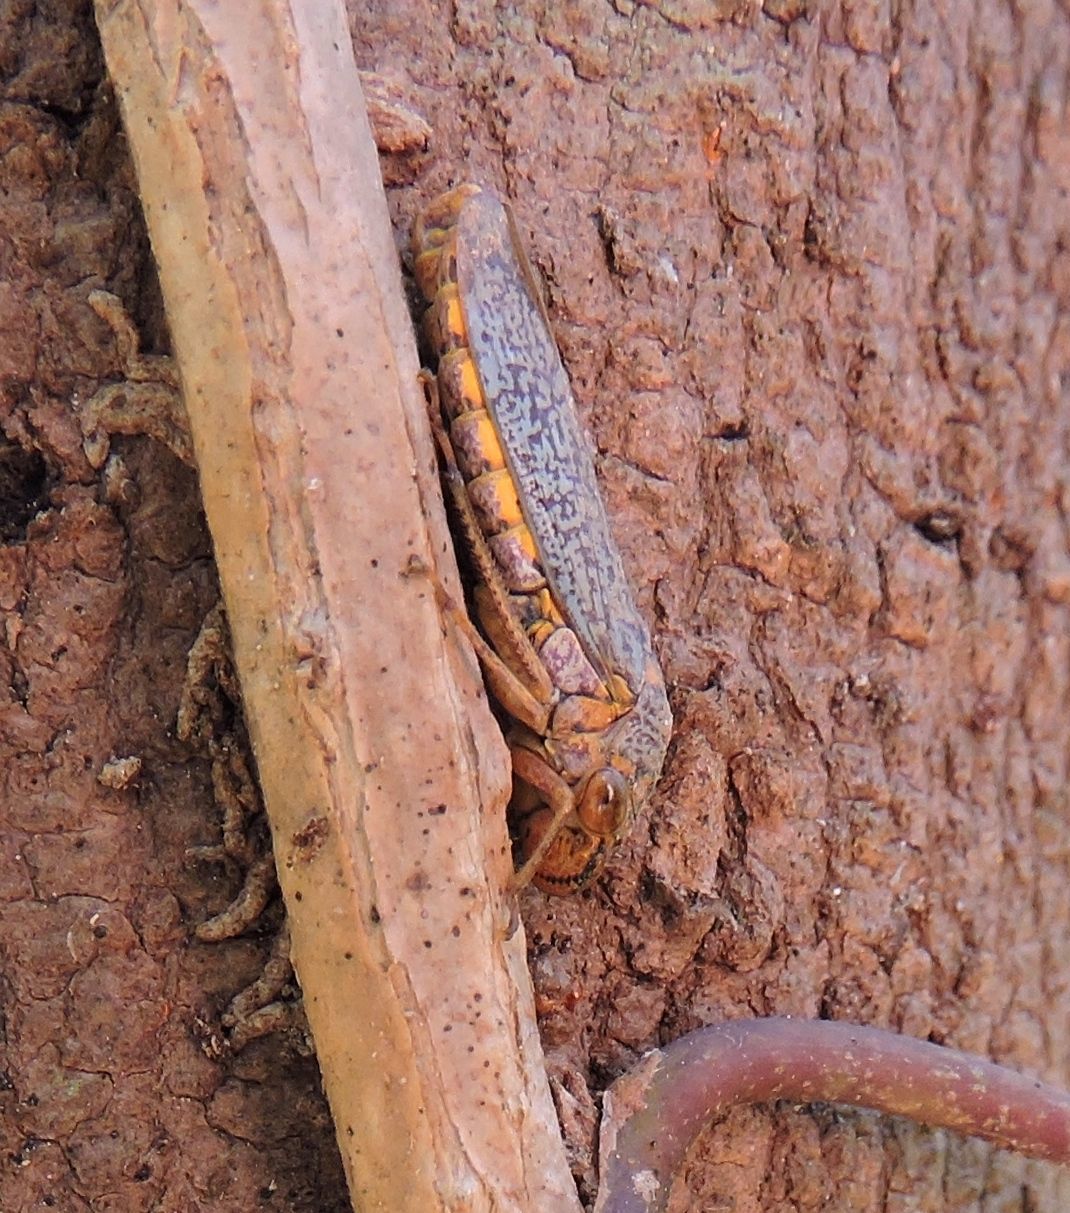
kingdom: Animalia
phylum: Arthropoda
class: Insecta
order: Hemiptera
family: Cicadellidae
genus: Oncometopia
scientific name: Oncometopia orbona
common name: Broad-headed sharpshooter
